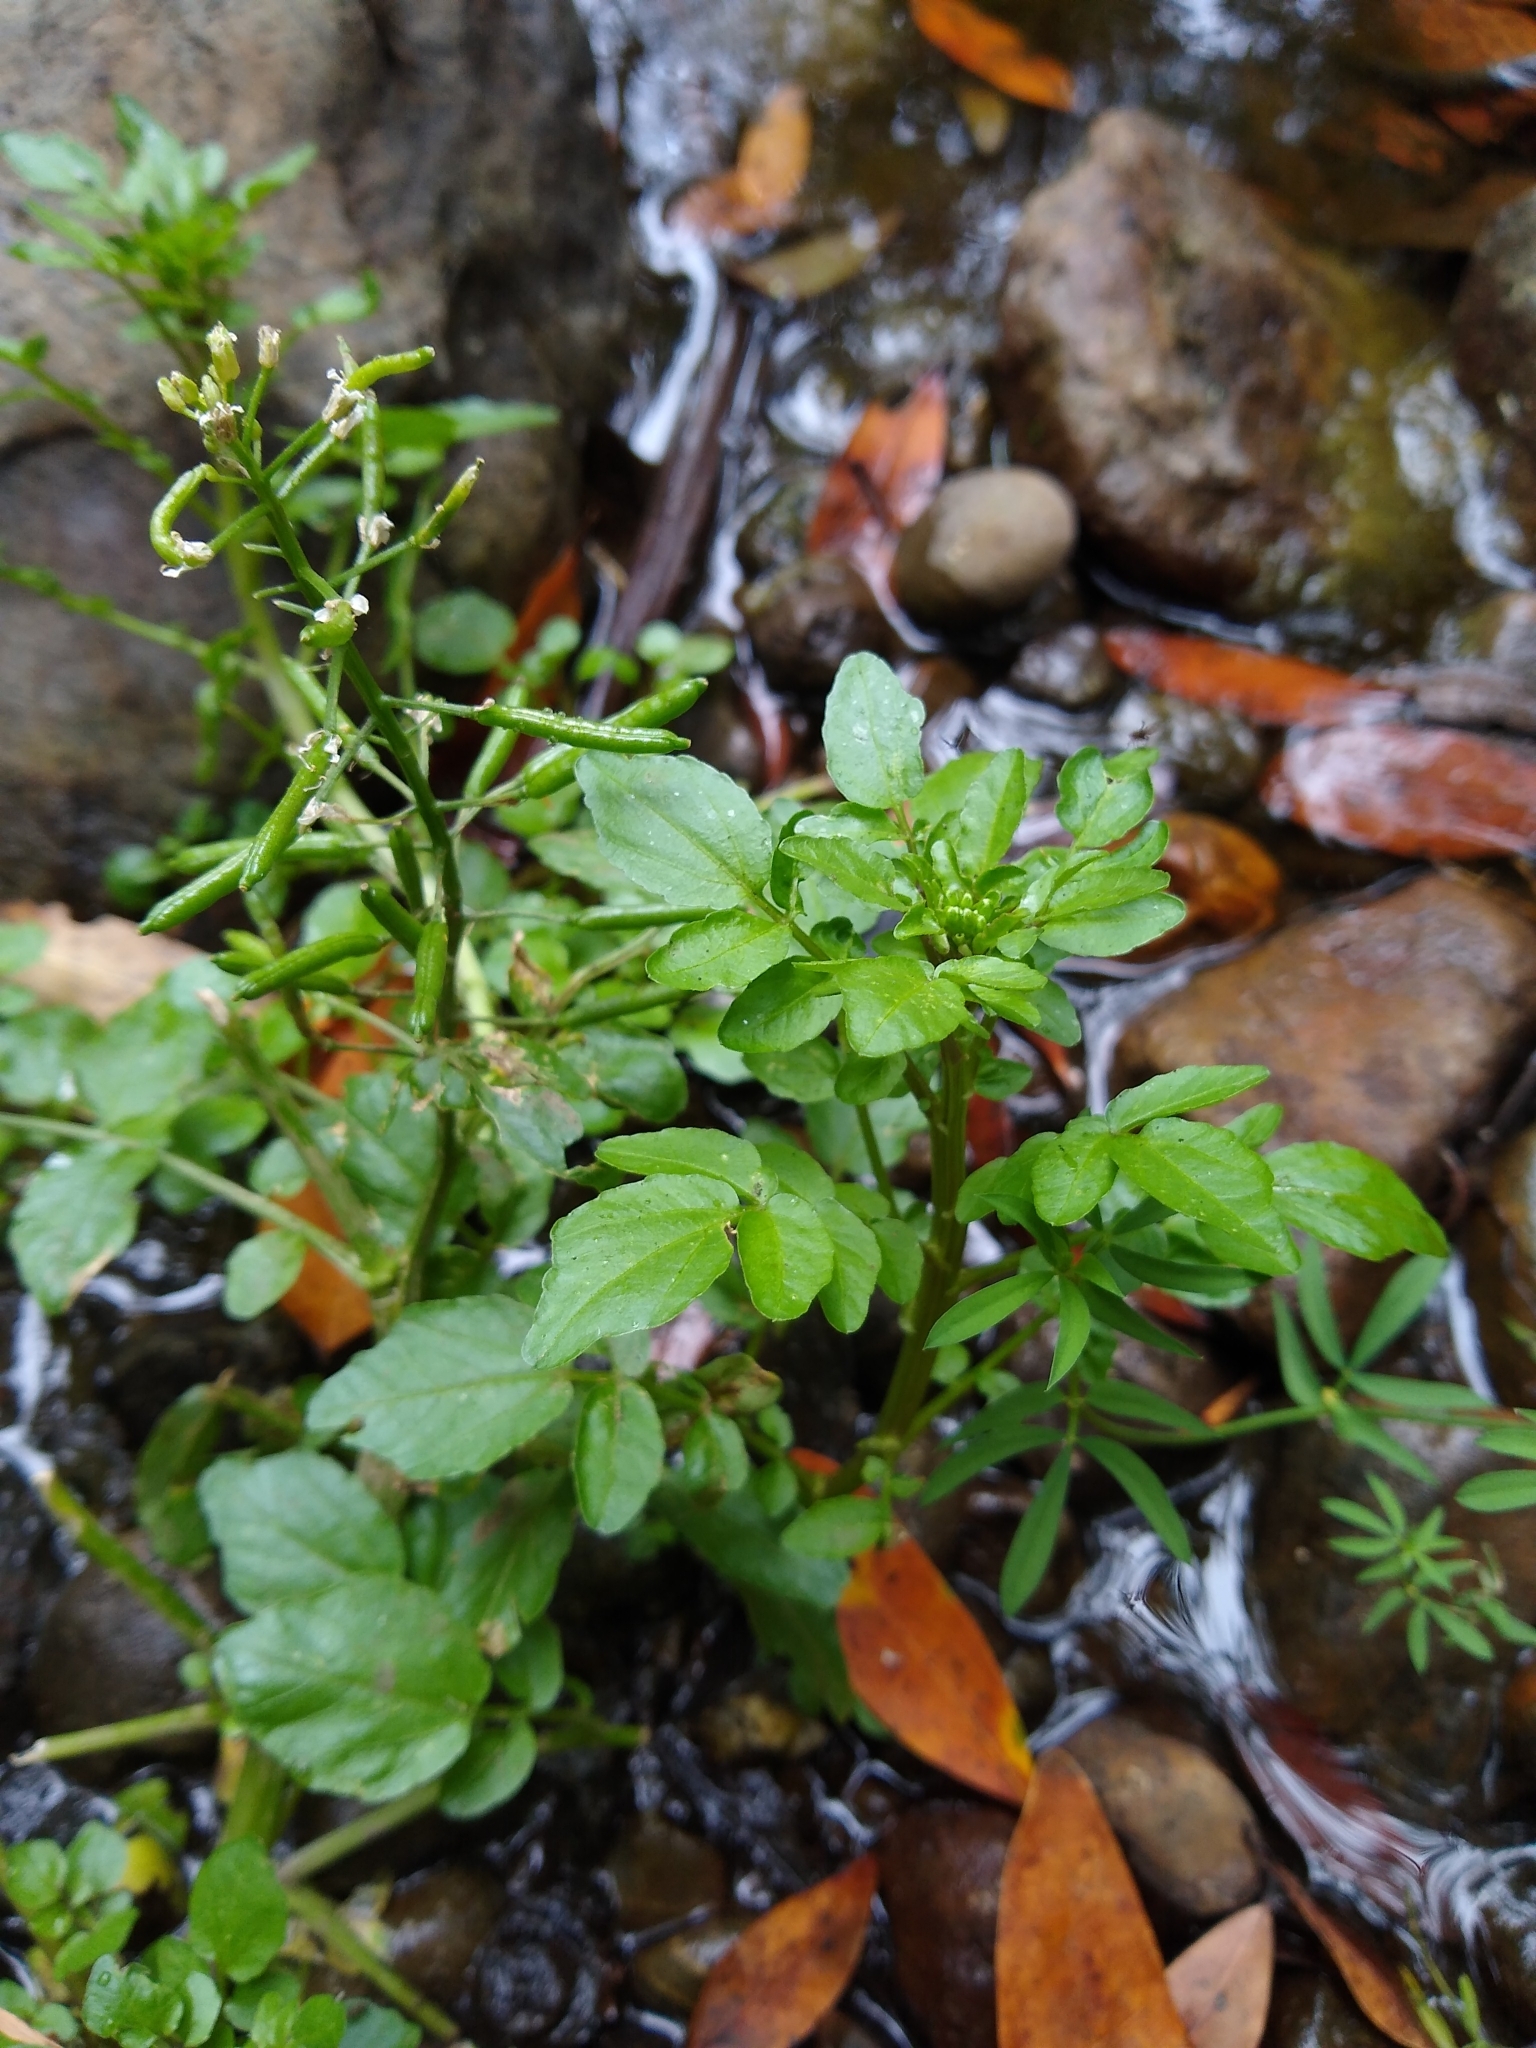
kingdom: Plantae
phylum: Tracheophyta
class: Magnoliopsida
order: Brassicales
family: Brassicaceae
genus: Nasturtium
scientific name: Nasturtium officinale
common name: Watercress
